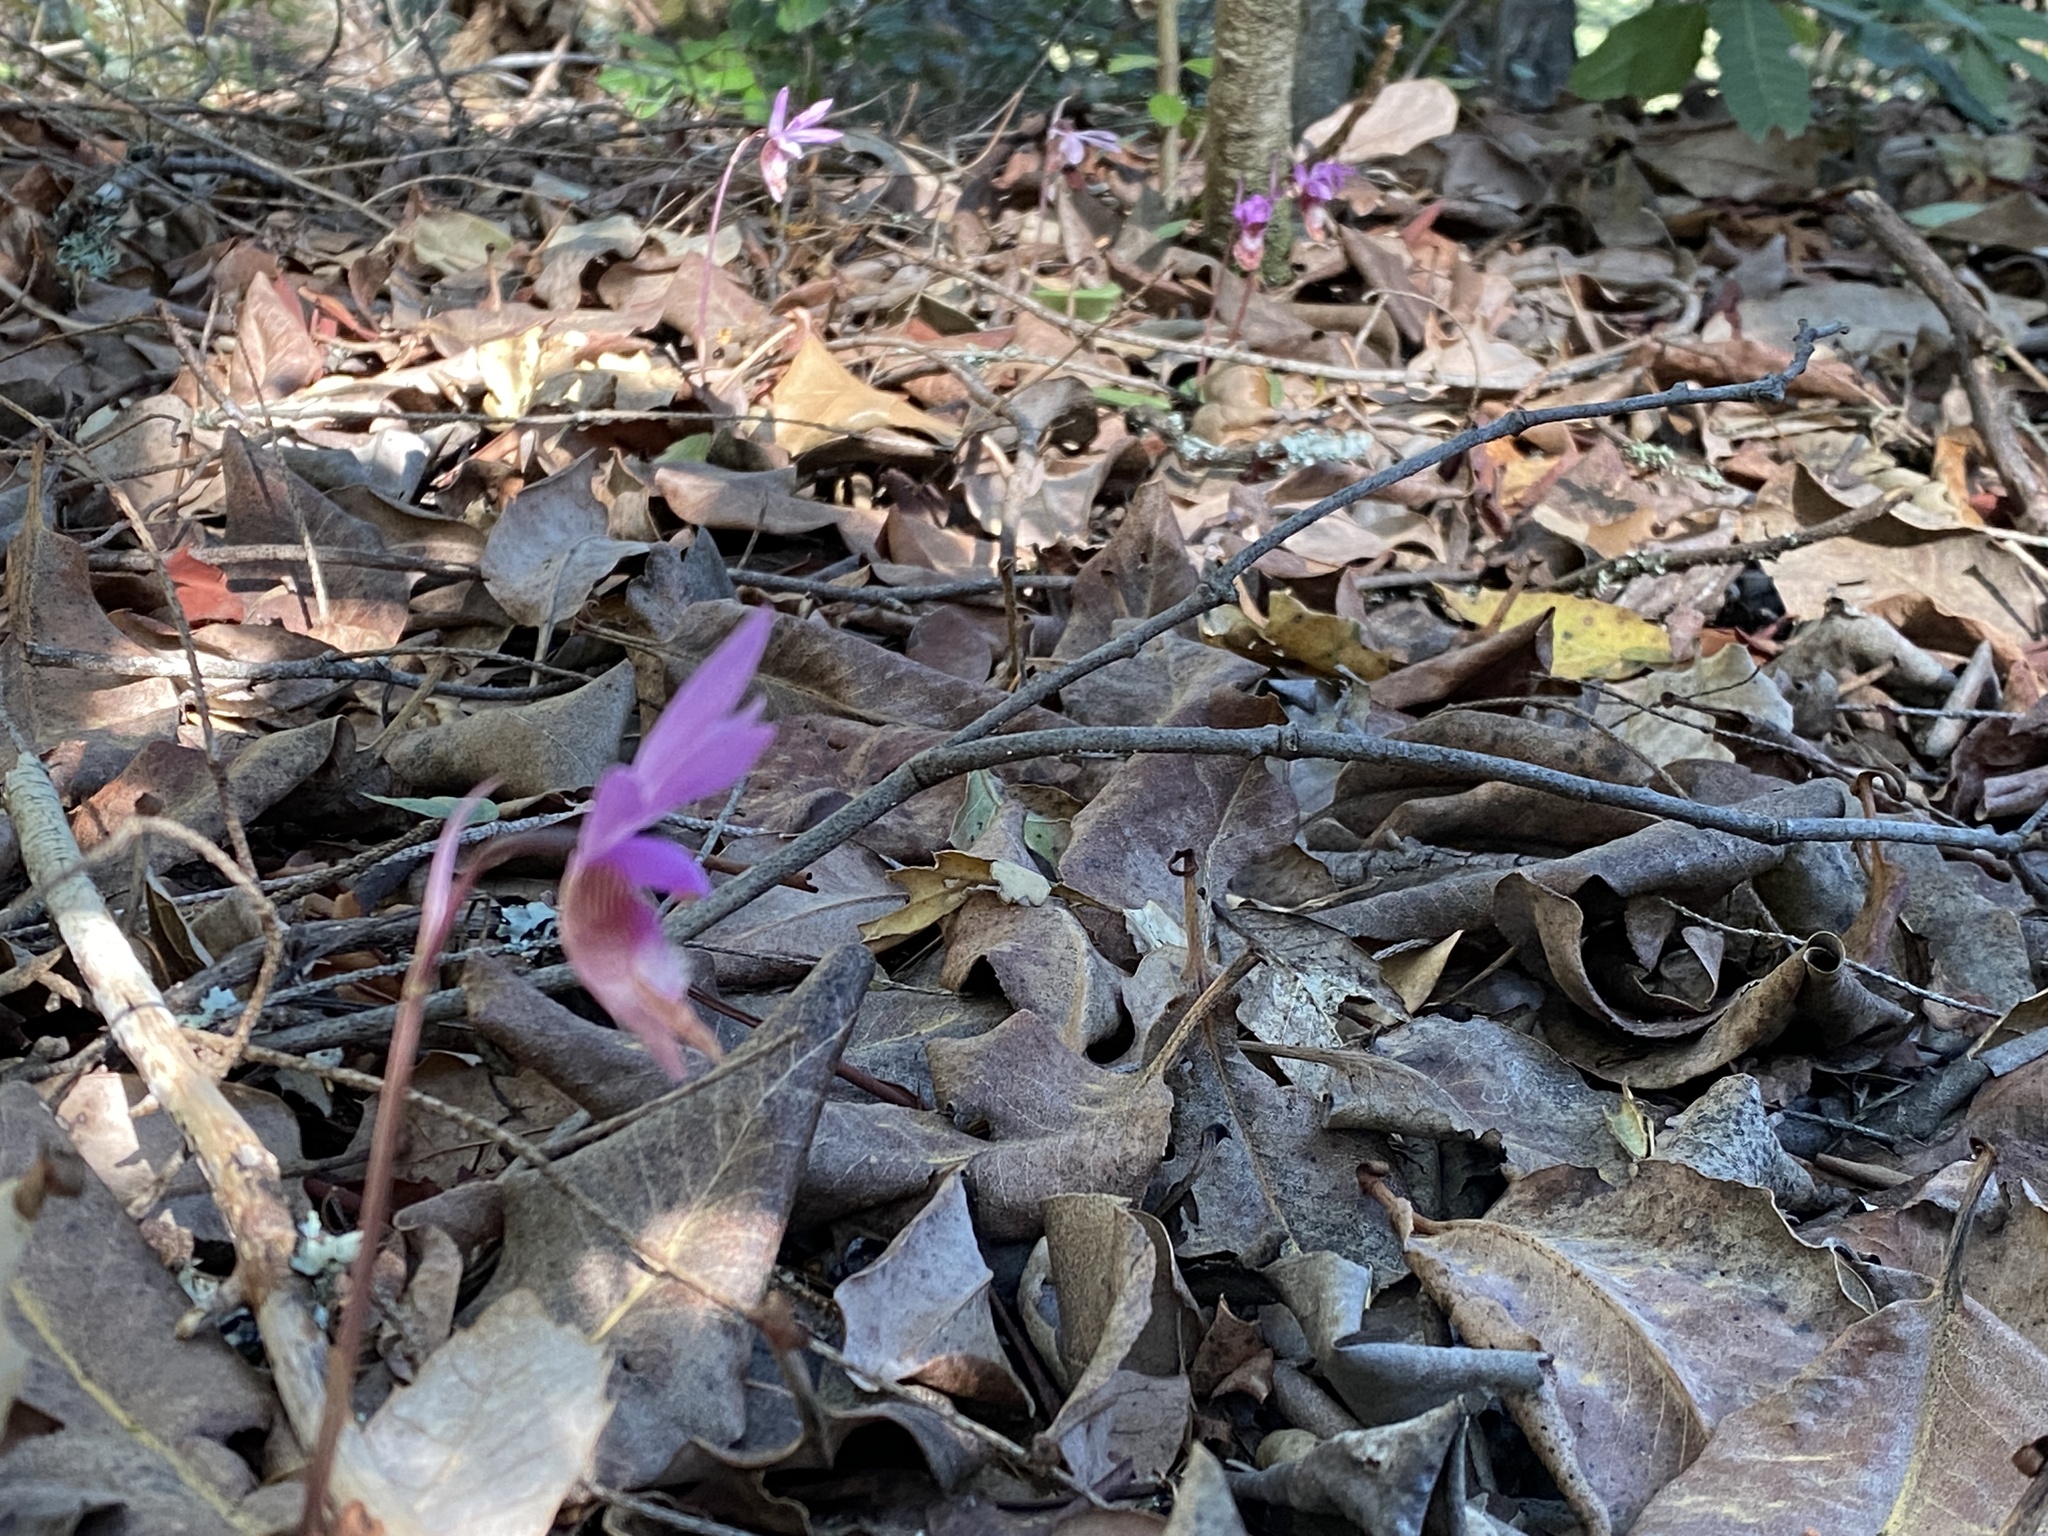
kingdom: Plantae
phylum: Tracheophyta
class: Liliopsida
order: Asparagales
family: Orchidaceae
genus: Calypso
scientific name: Calypso bulbosa
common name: Calypso
